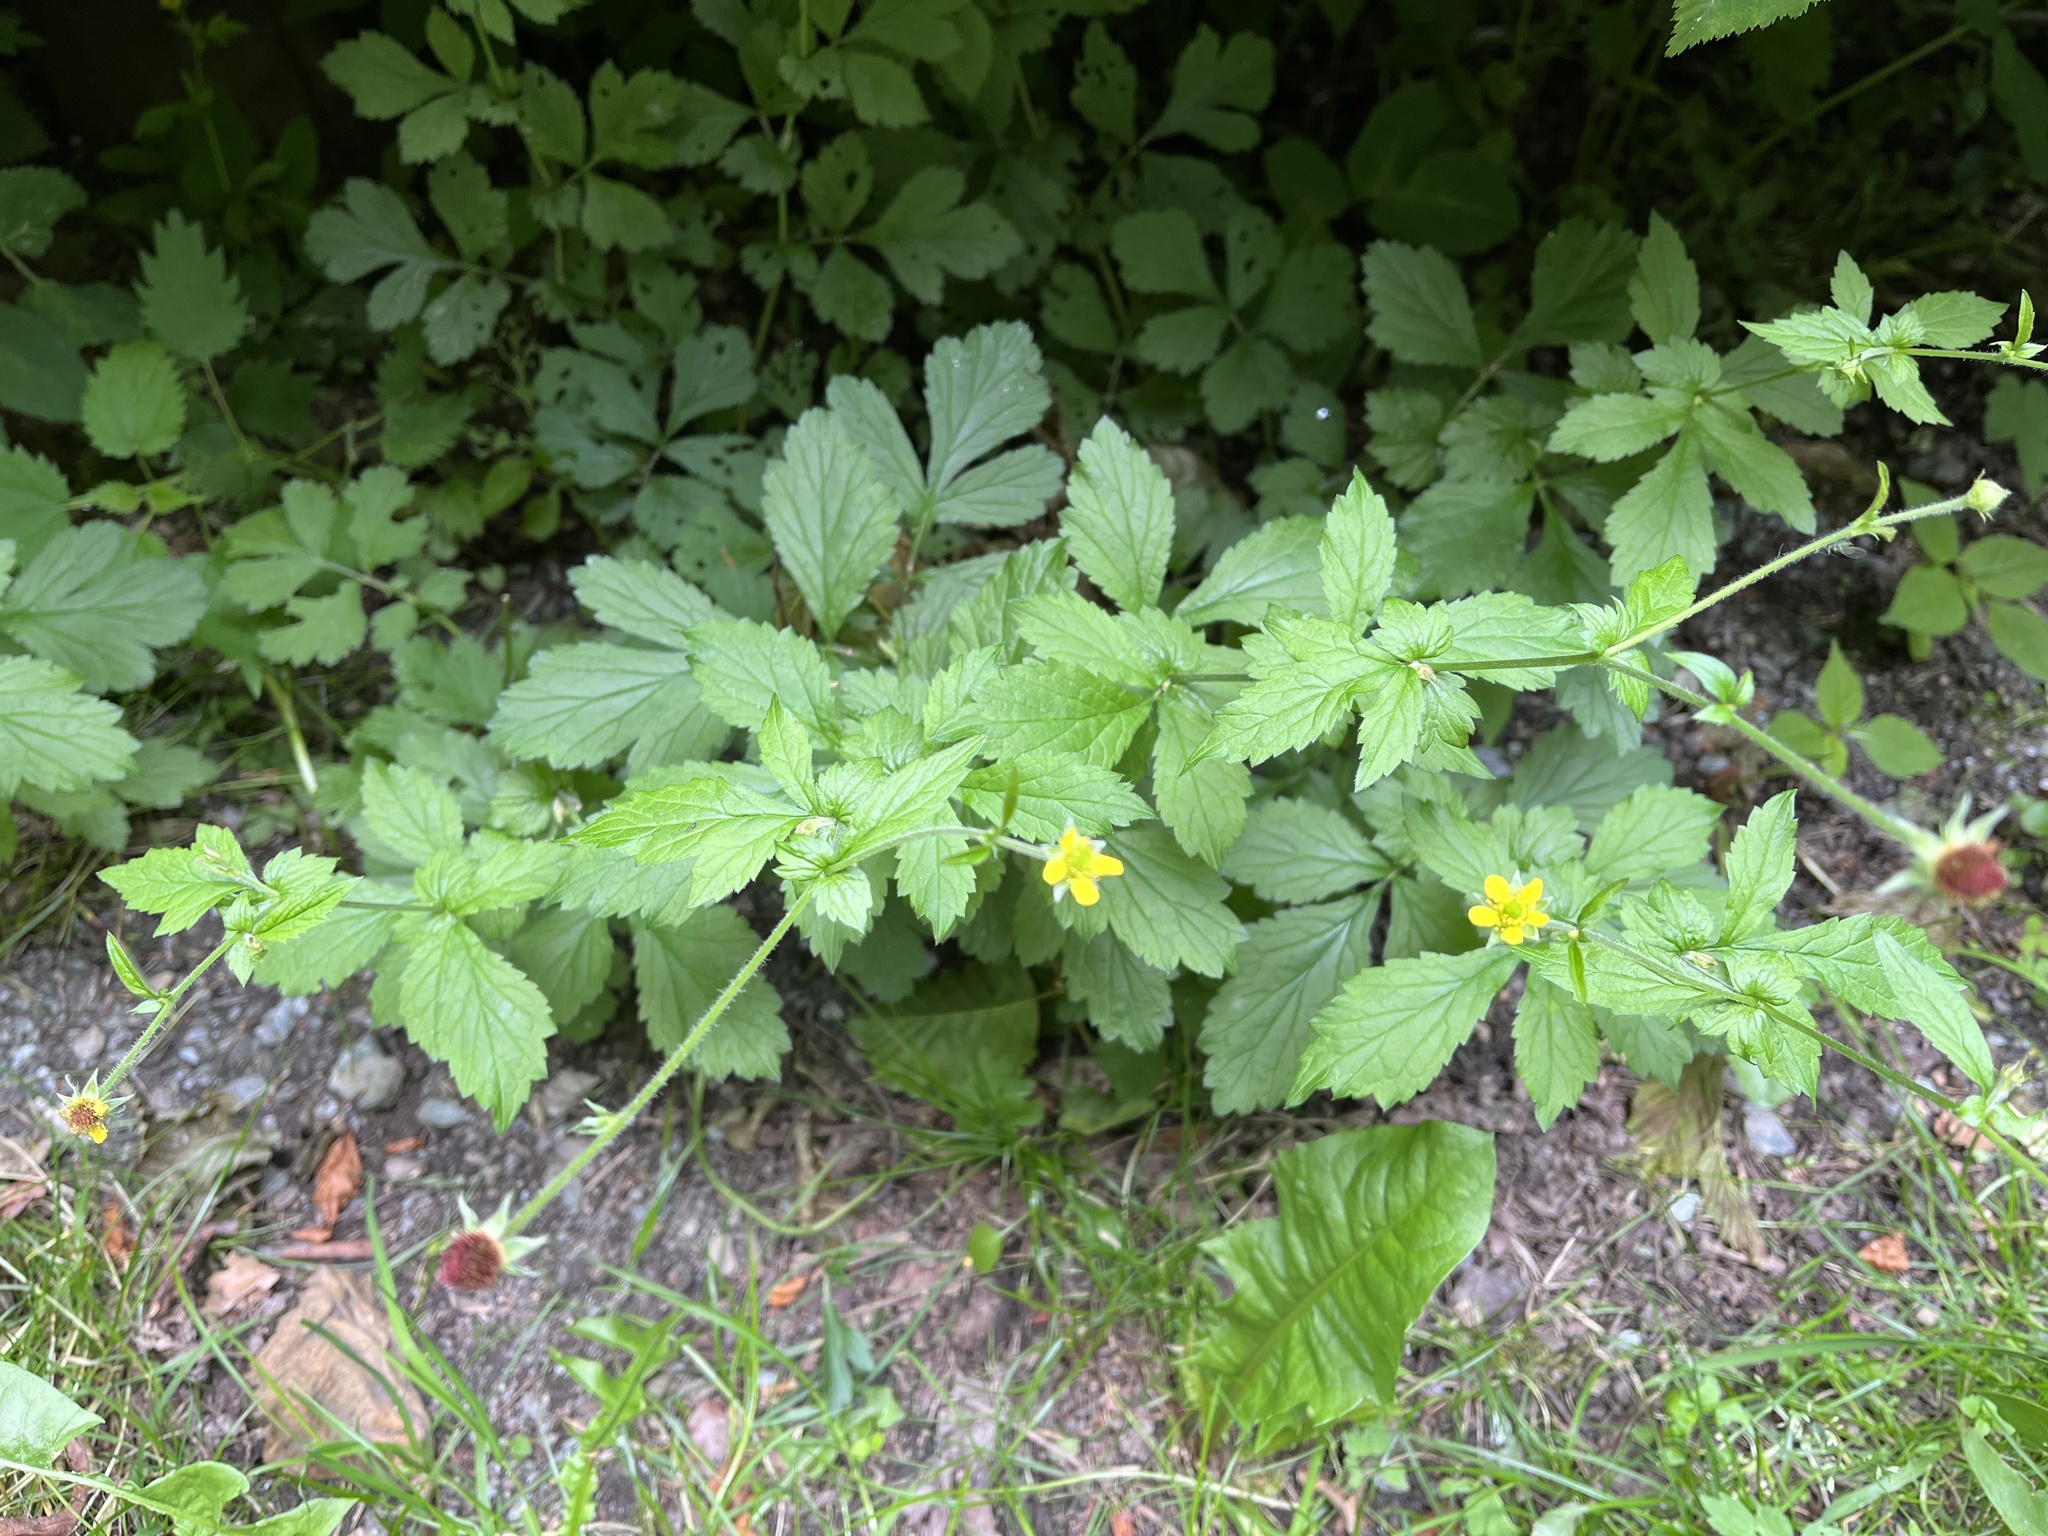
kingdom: Plantae
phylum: Tracheophyta
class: Magnoliopsida
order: Rosales
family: Rosaceae
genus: Geum
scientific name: Geum urbanum
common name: Wood avens
